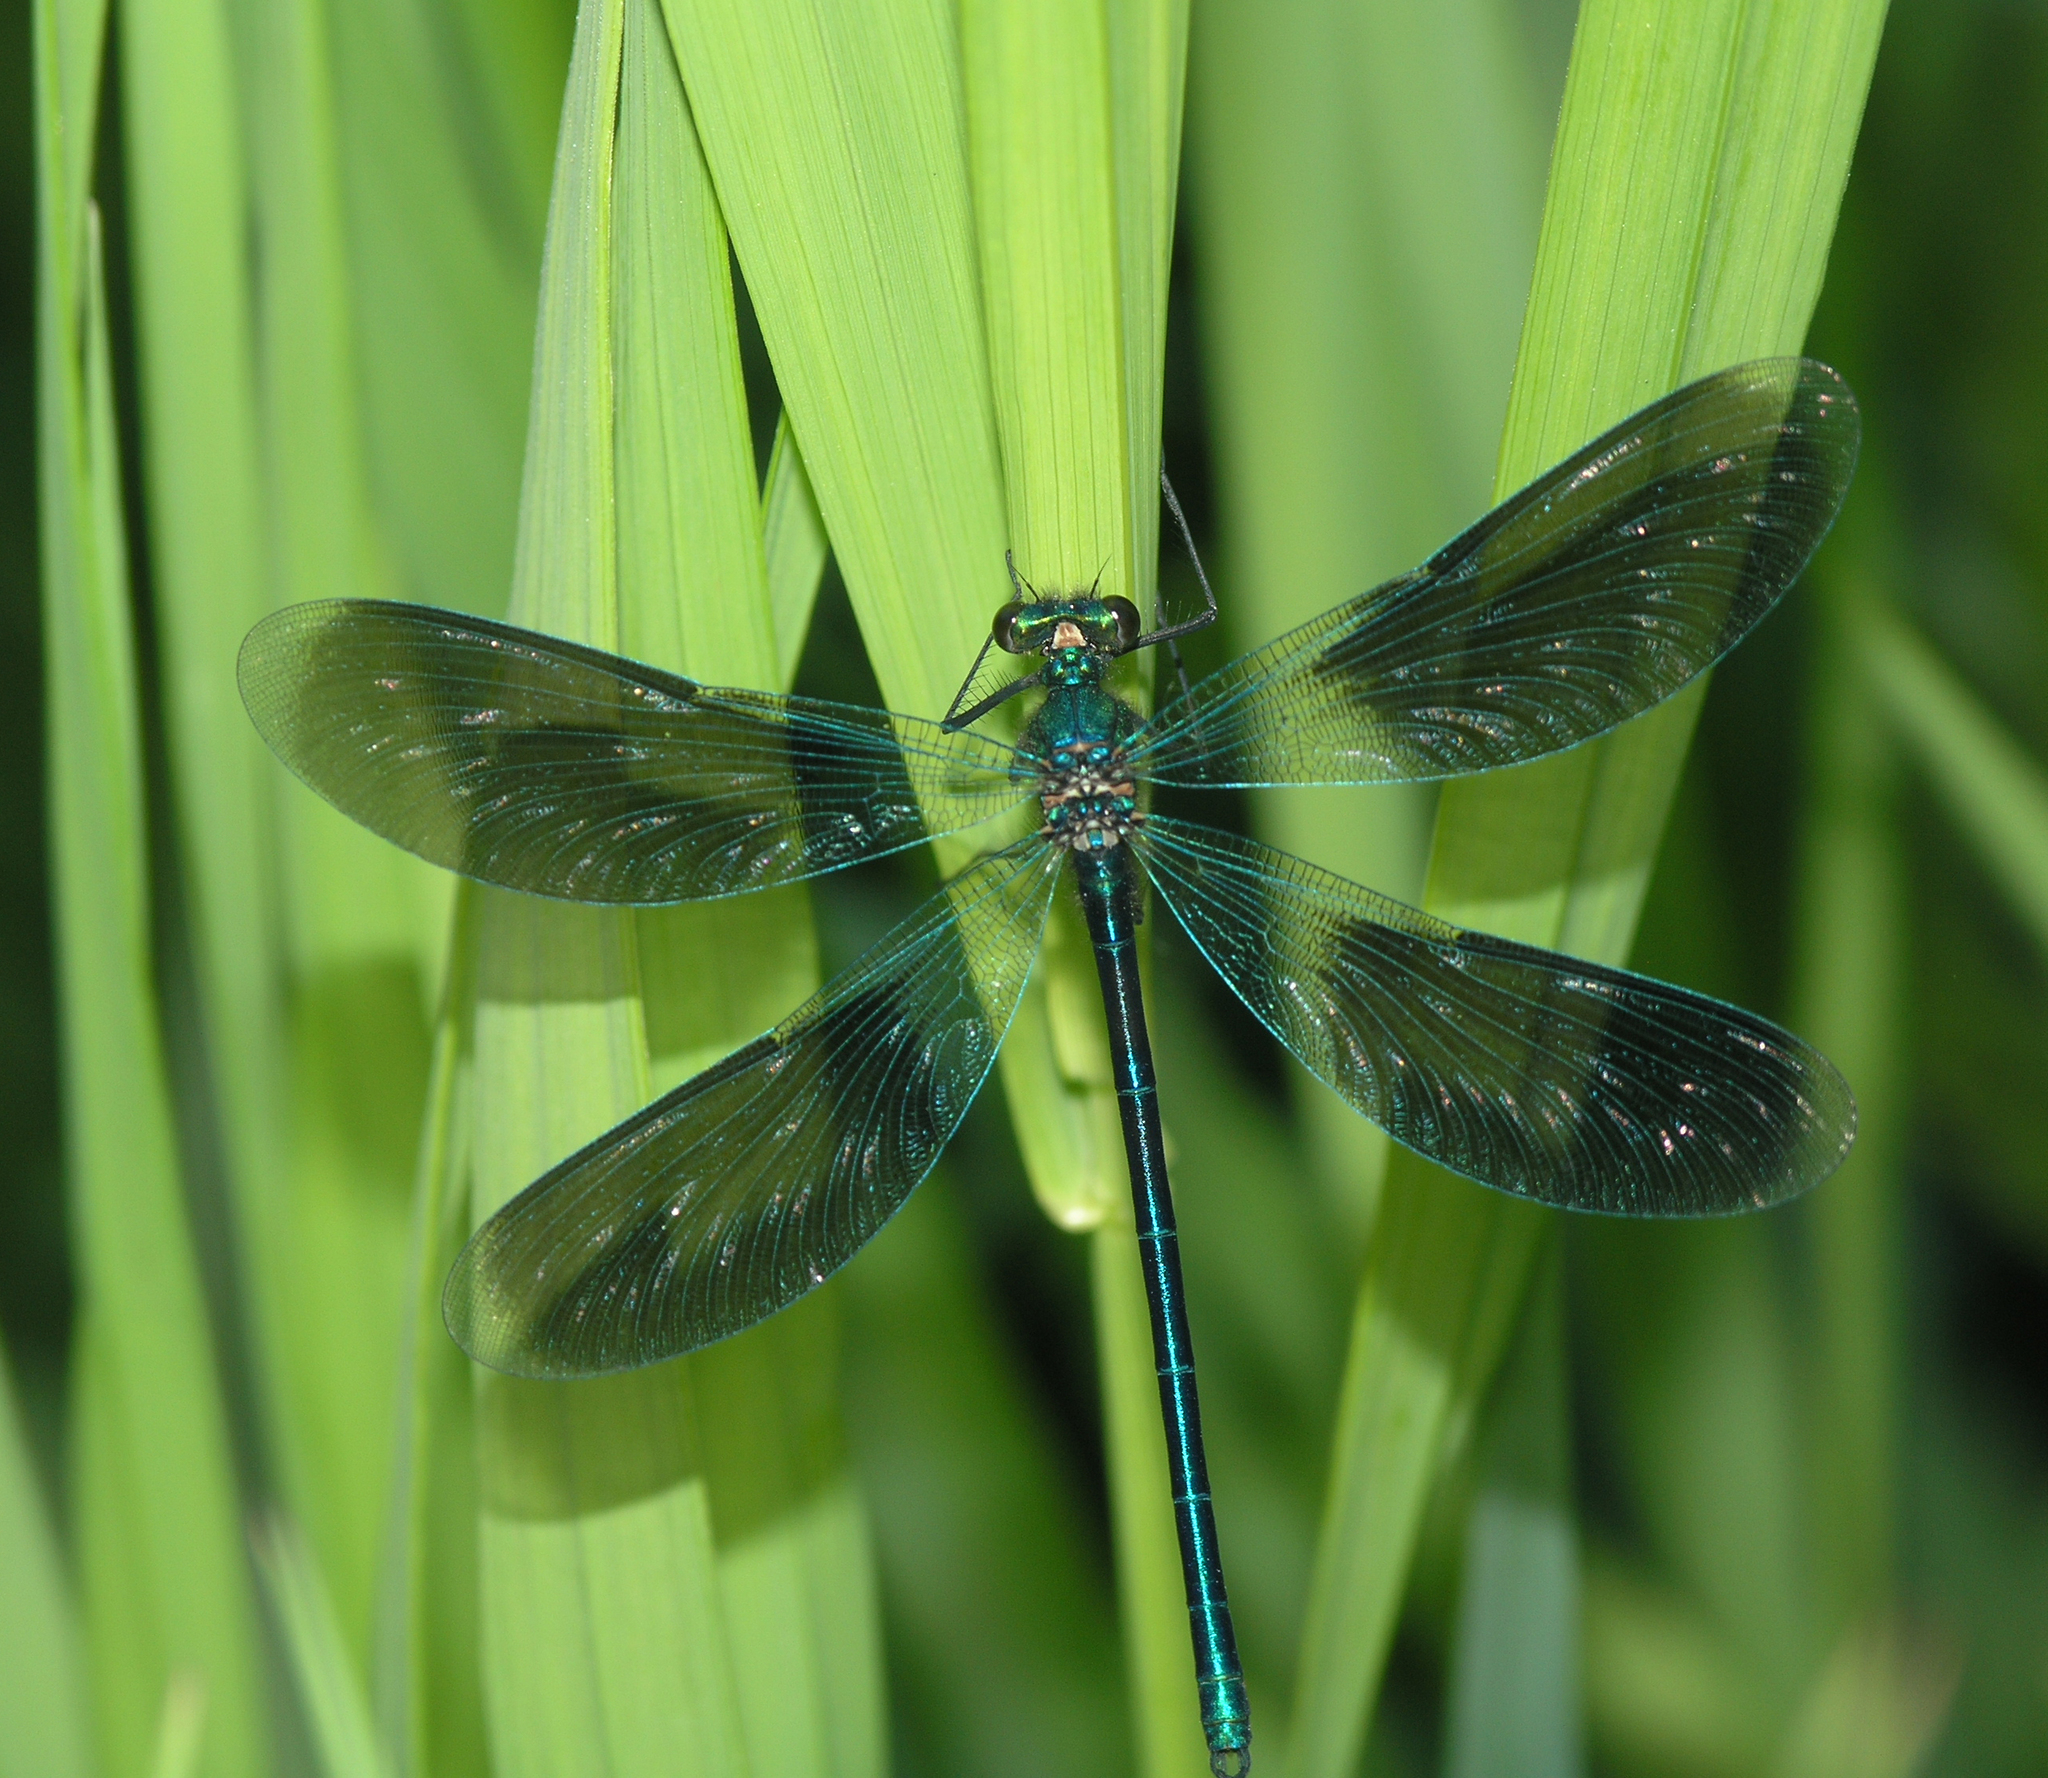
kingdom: Animalia
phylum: Arthropoda
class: Insecta
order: Odonata
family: Calopterygidae
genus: Calopteryx
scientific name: Calopteryx splendens
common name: Banded demoiselle
